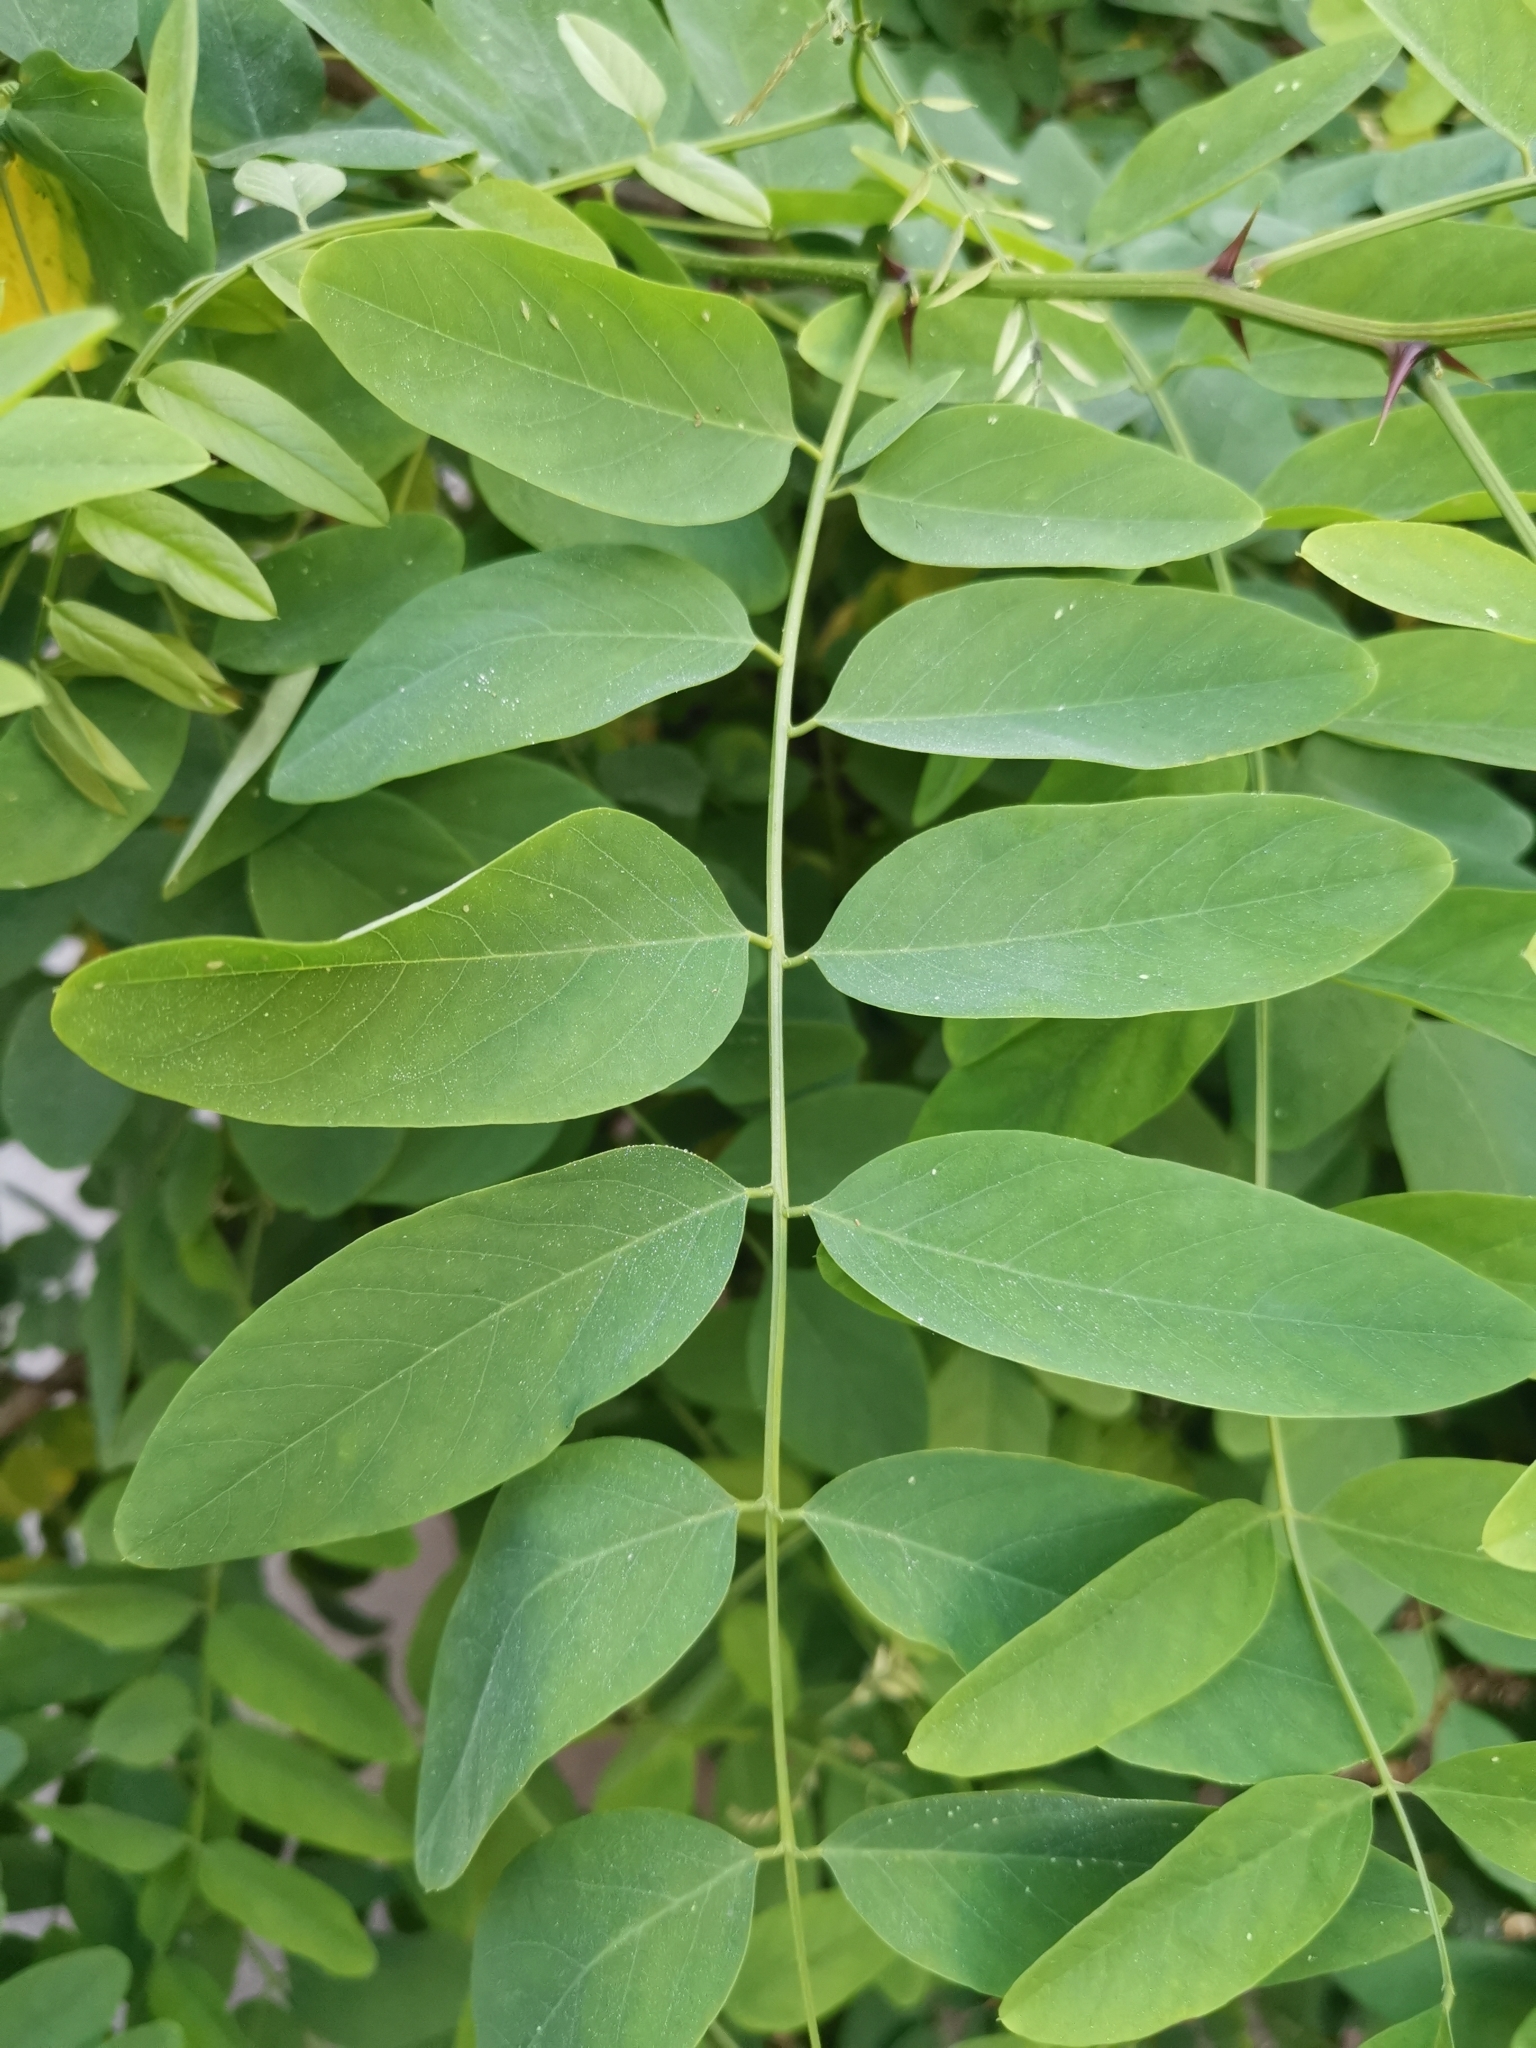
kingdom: Plantae
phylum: Tracheophyta
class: Magnoliopsida
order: Fabales
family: Fabaceae
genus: Robinia
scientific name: Robinia pseudoacacia
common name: Black locust
